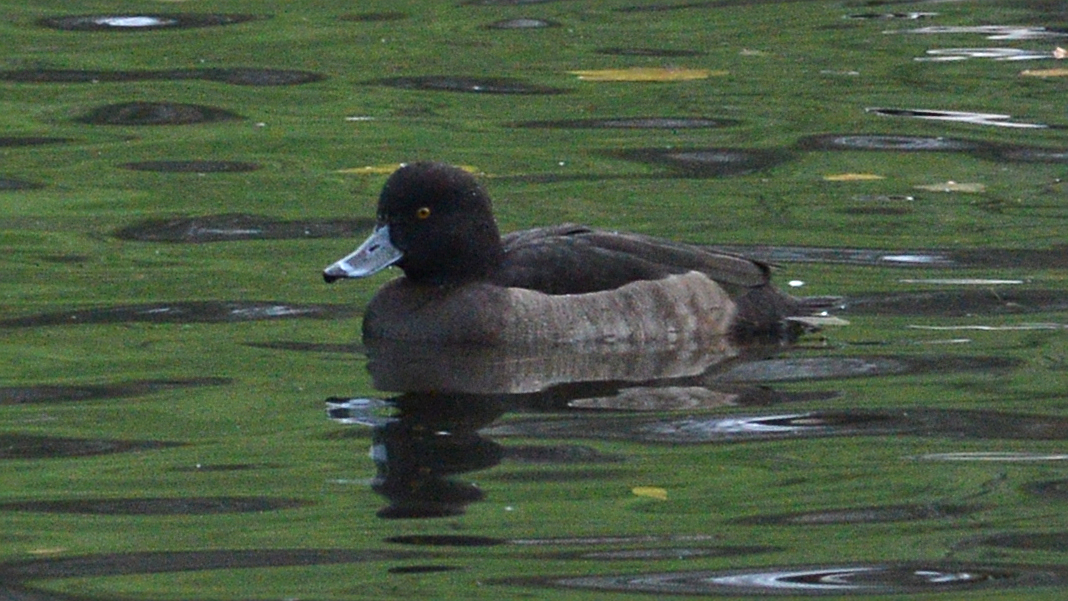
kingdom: Animalia
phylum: Chordata
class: Aves
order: Anseriformes
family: Anatidae
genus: Aythya
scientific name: Aythya fuligula
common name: Tufted duck
